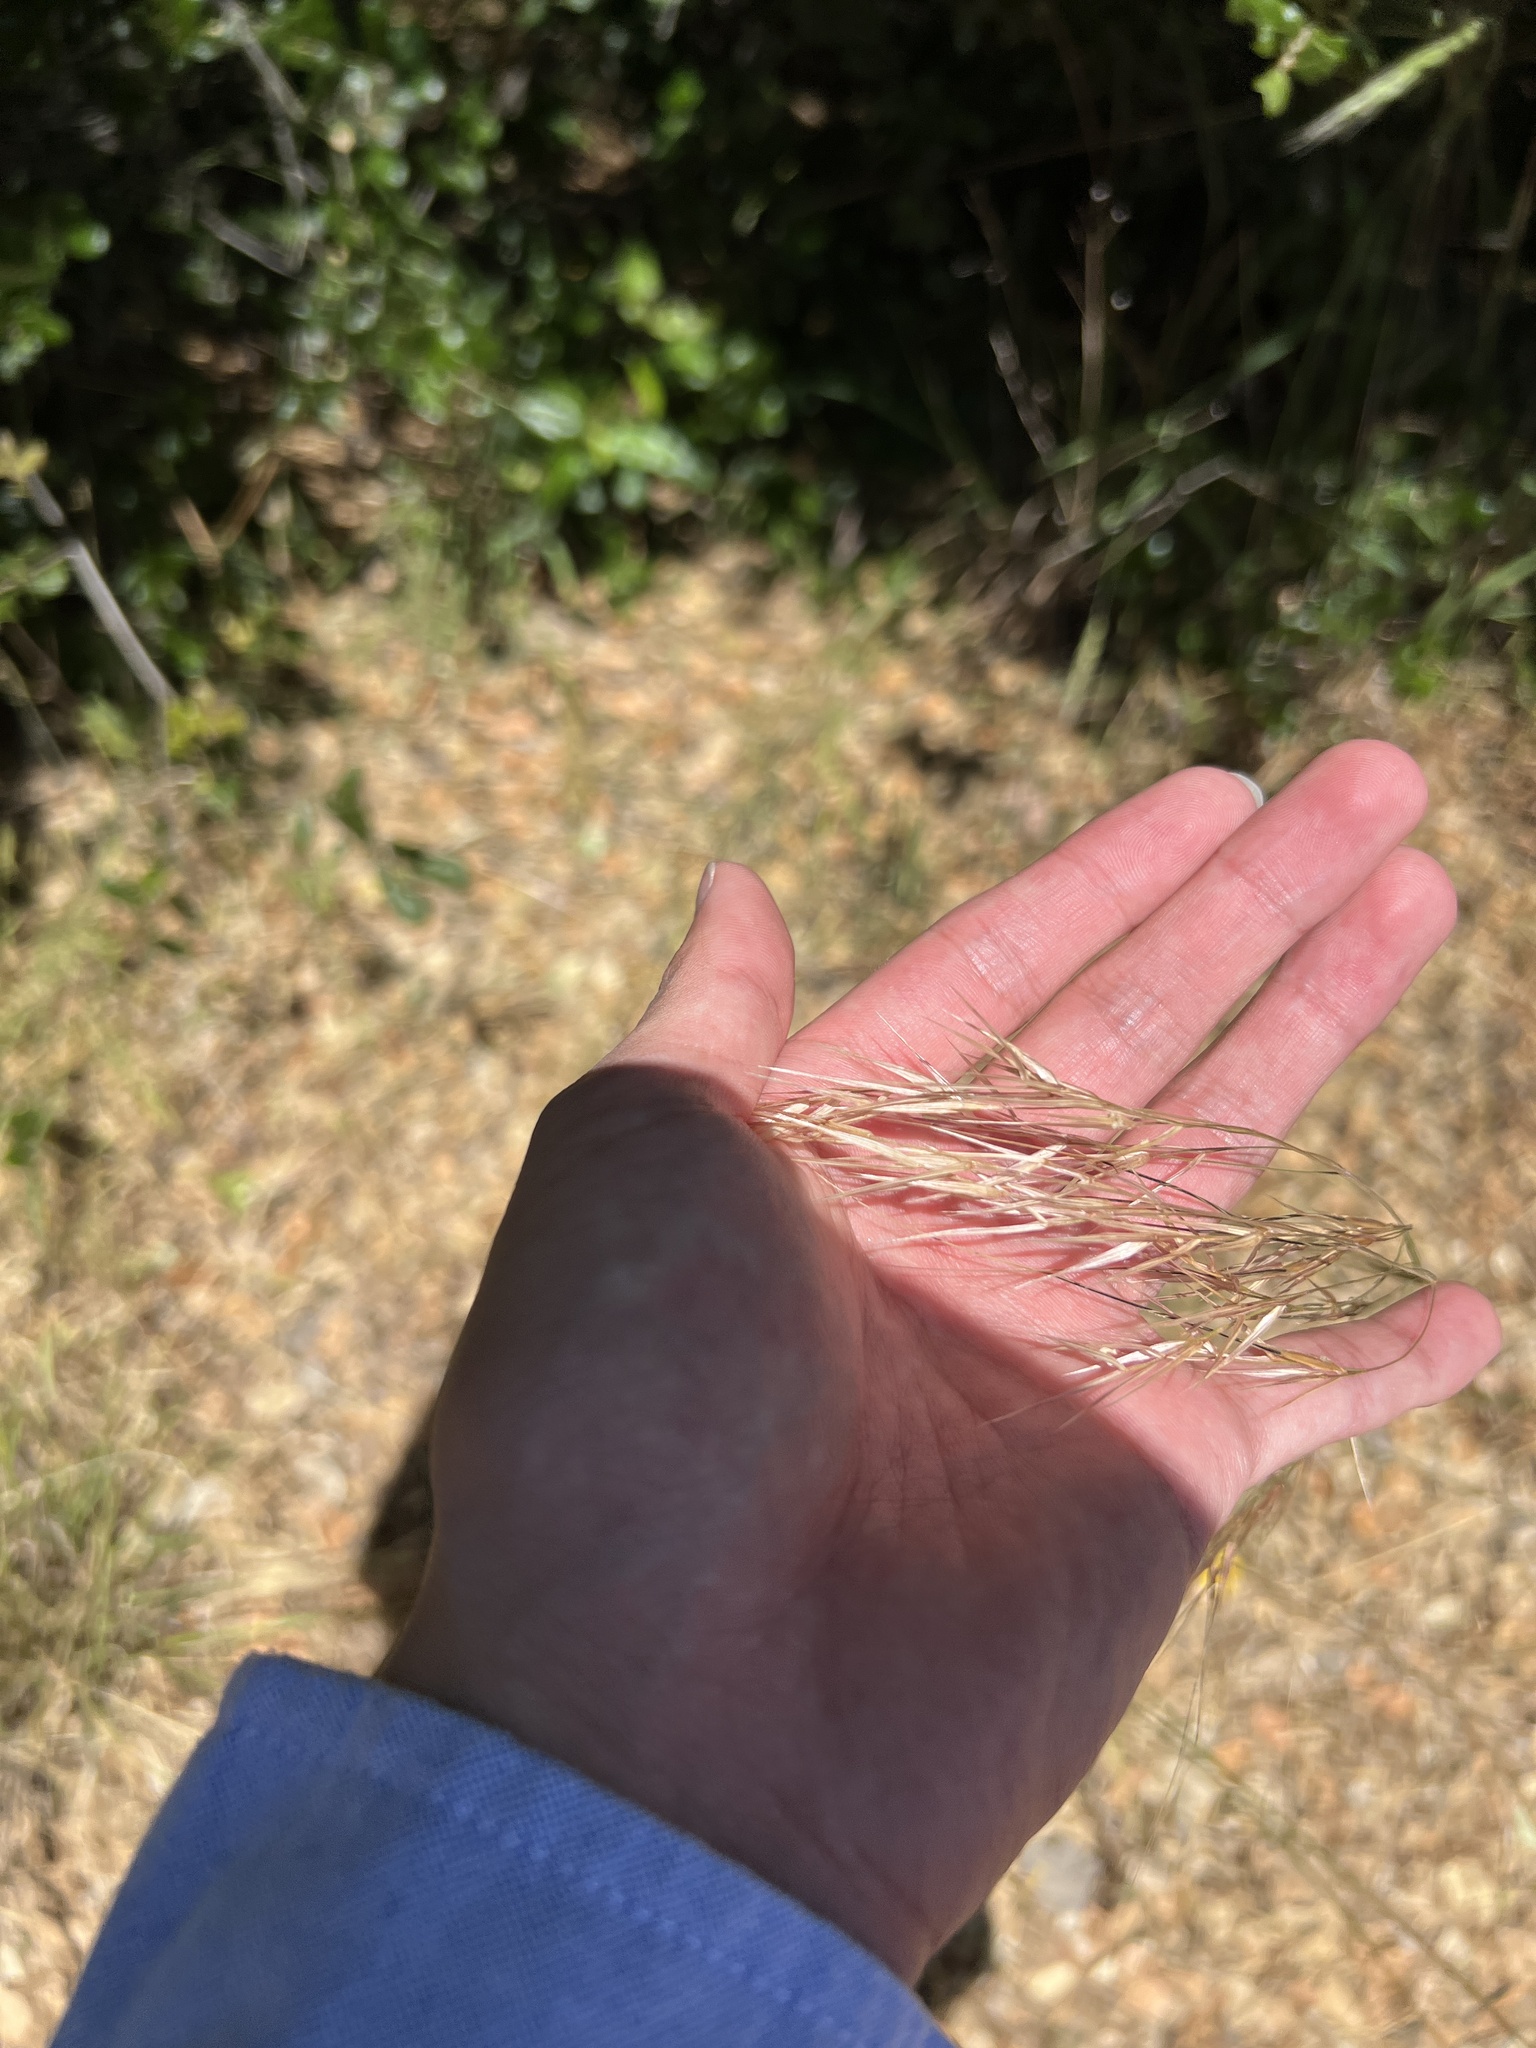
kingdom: Plantae
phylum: Tracheophyta
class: Liliopsida
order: Poales
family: Poaceae
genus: Nassella
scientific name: Nassella pulchra
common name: Purple needlegrass
